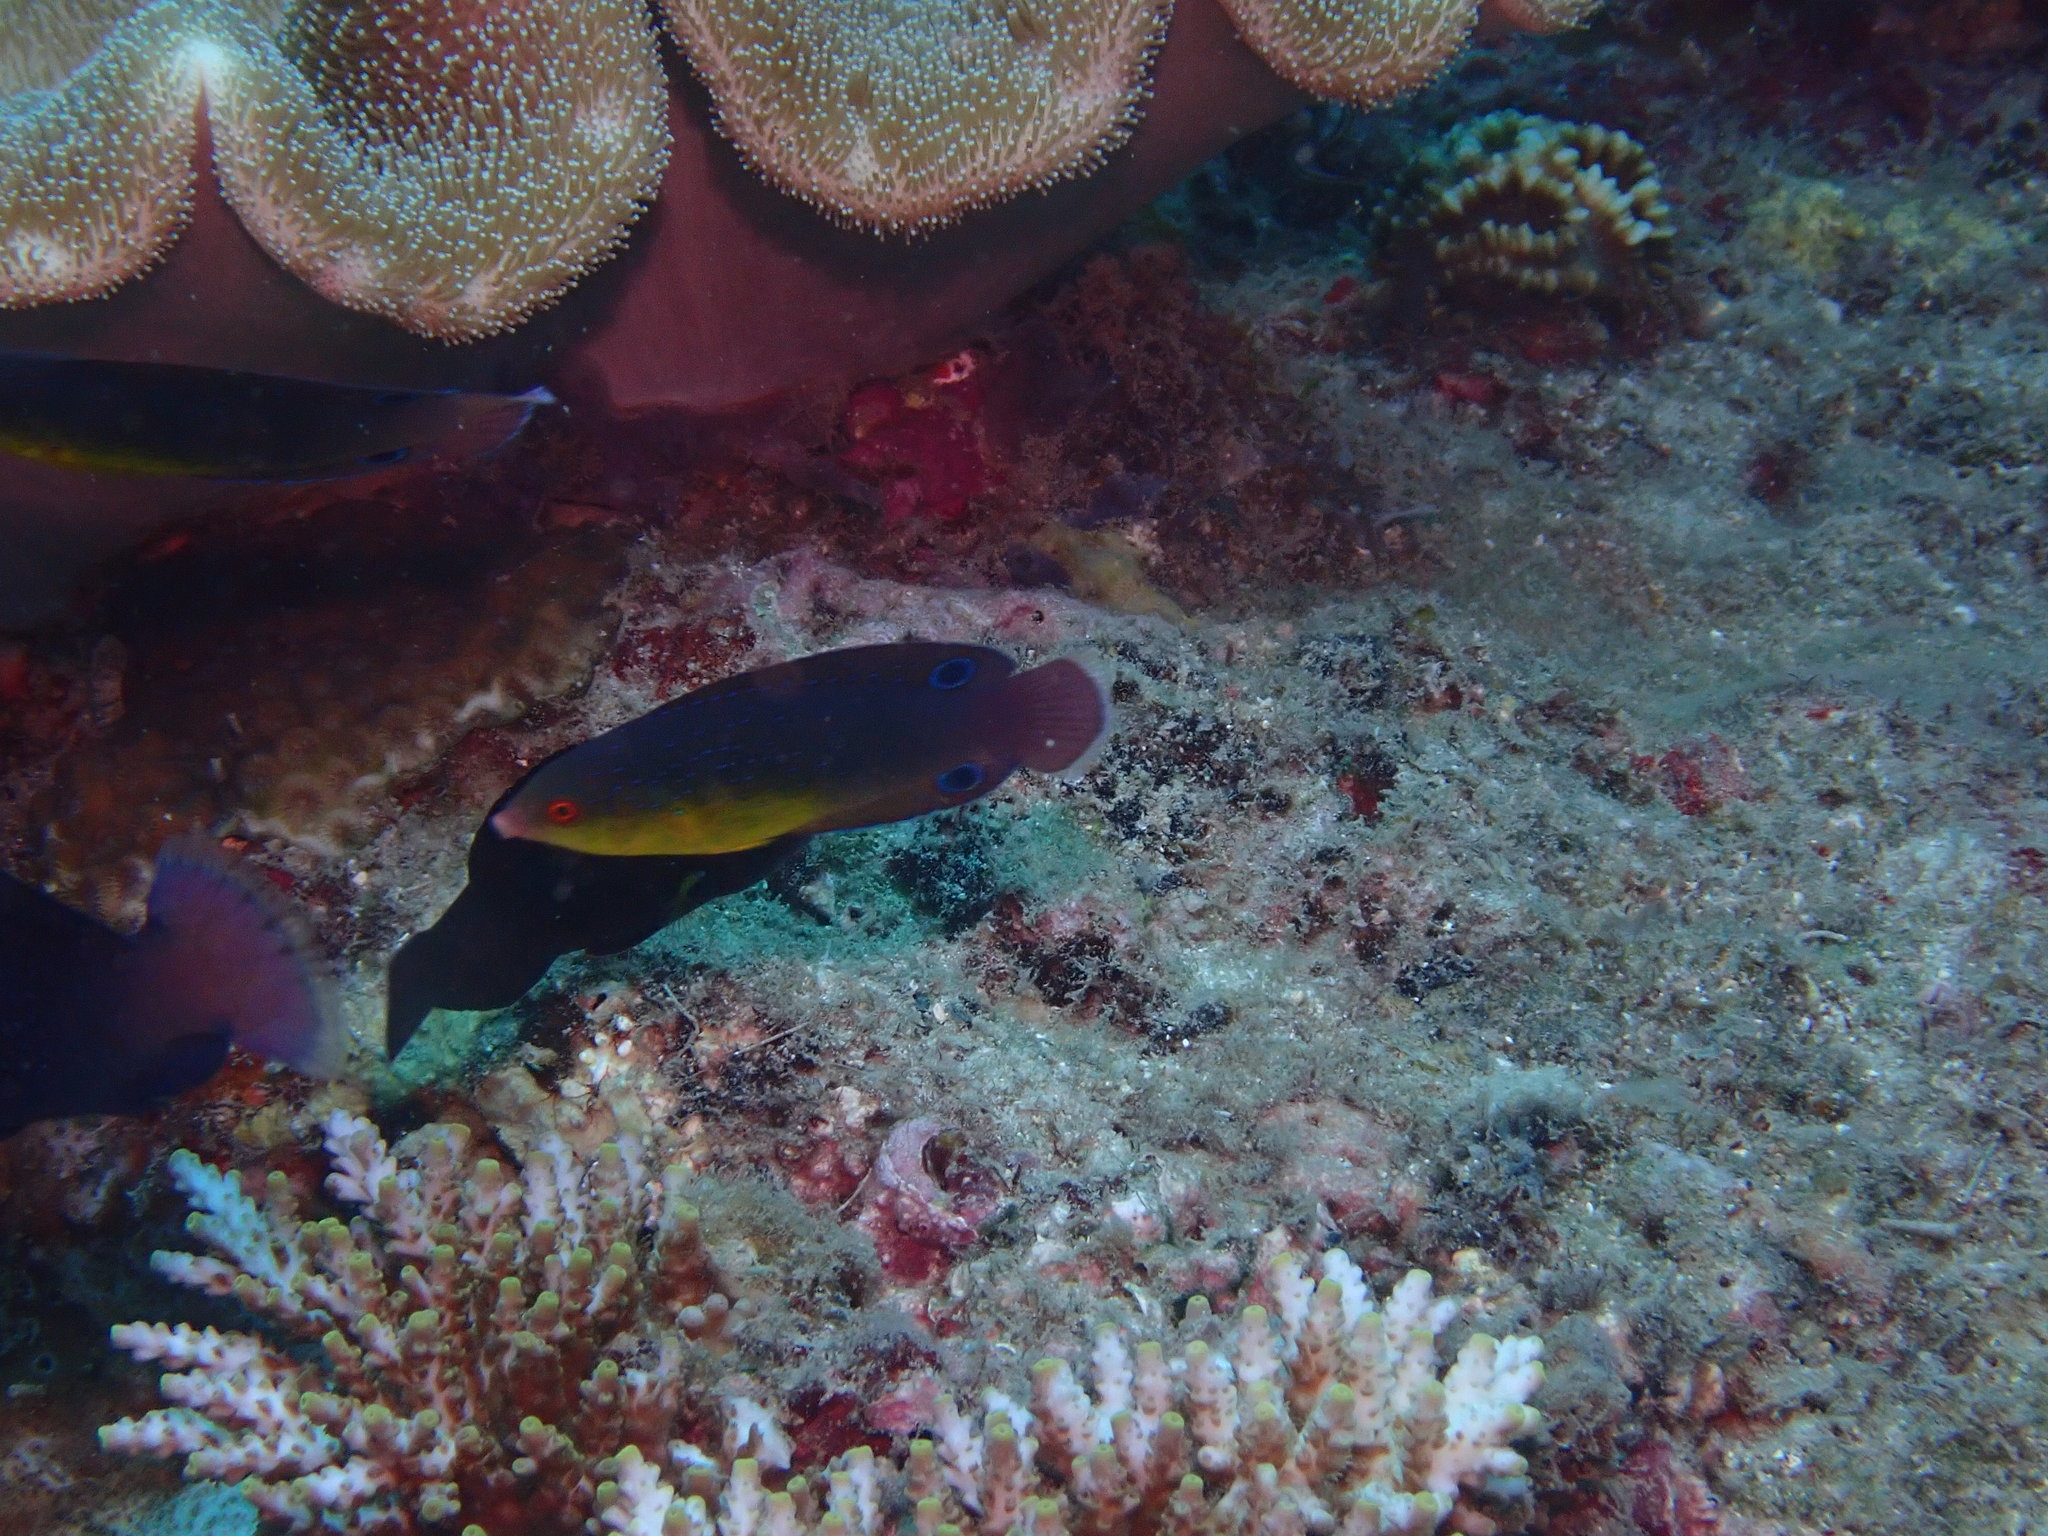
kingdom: Animalia
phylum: Chordata
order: Perciformes
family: Labridae
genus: Anampses
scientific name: Anampses twistii
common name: Yellowbreasted wrasse
